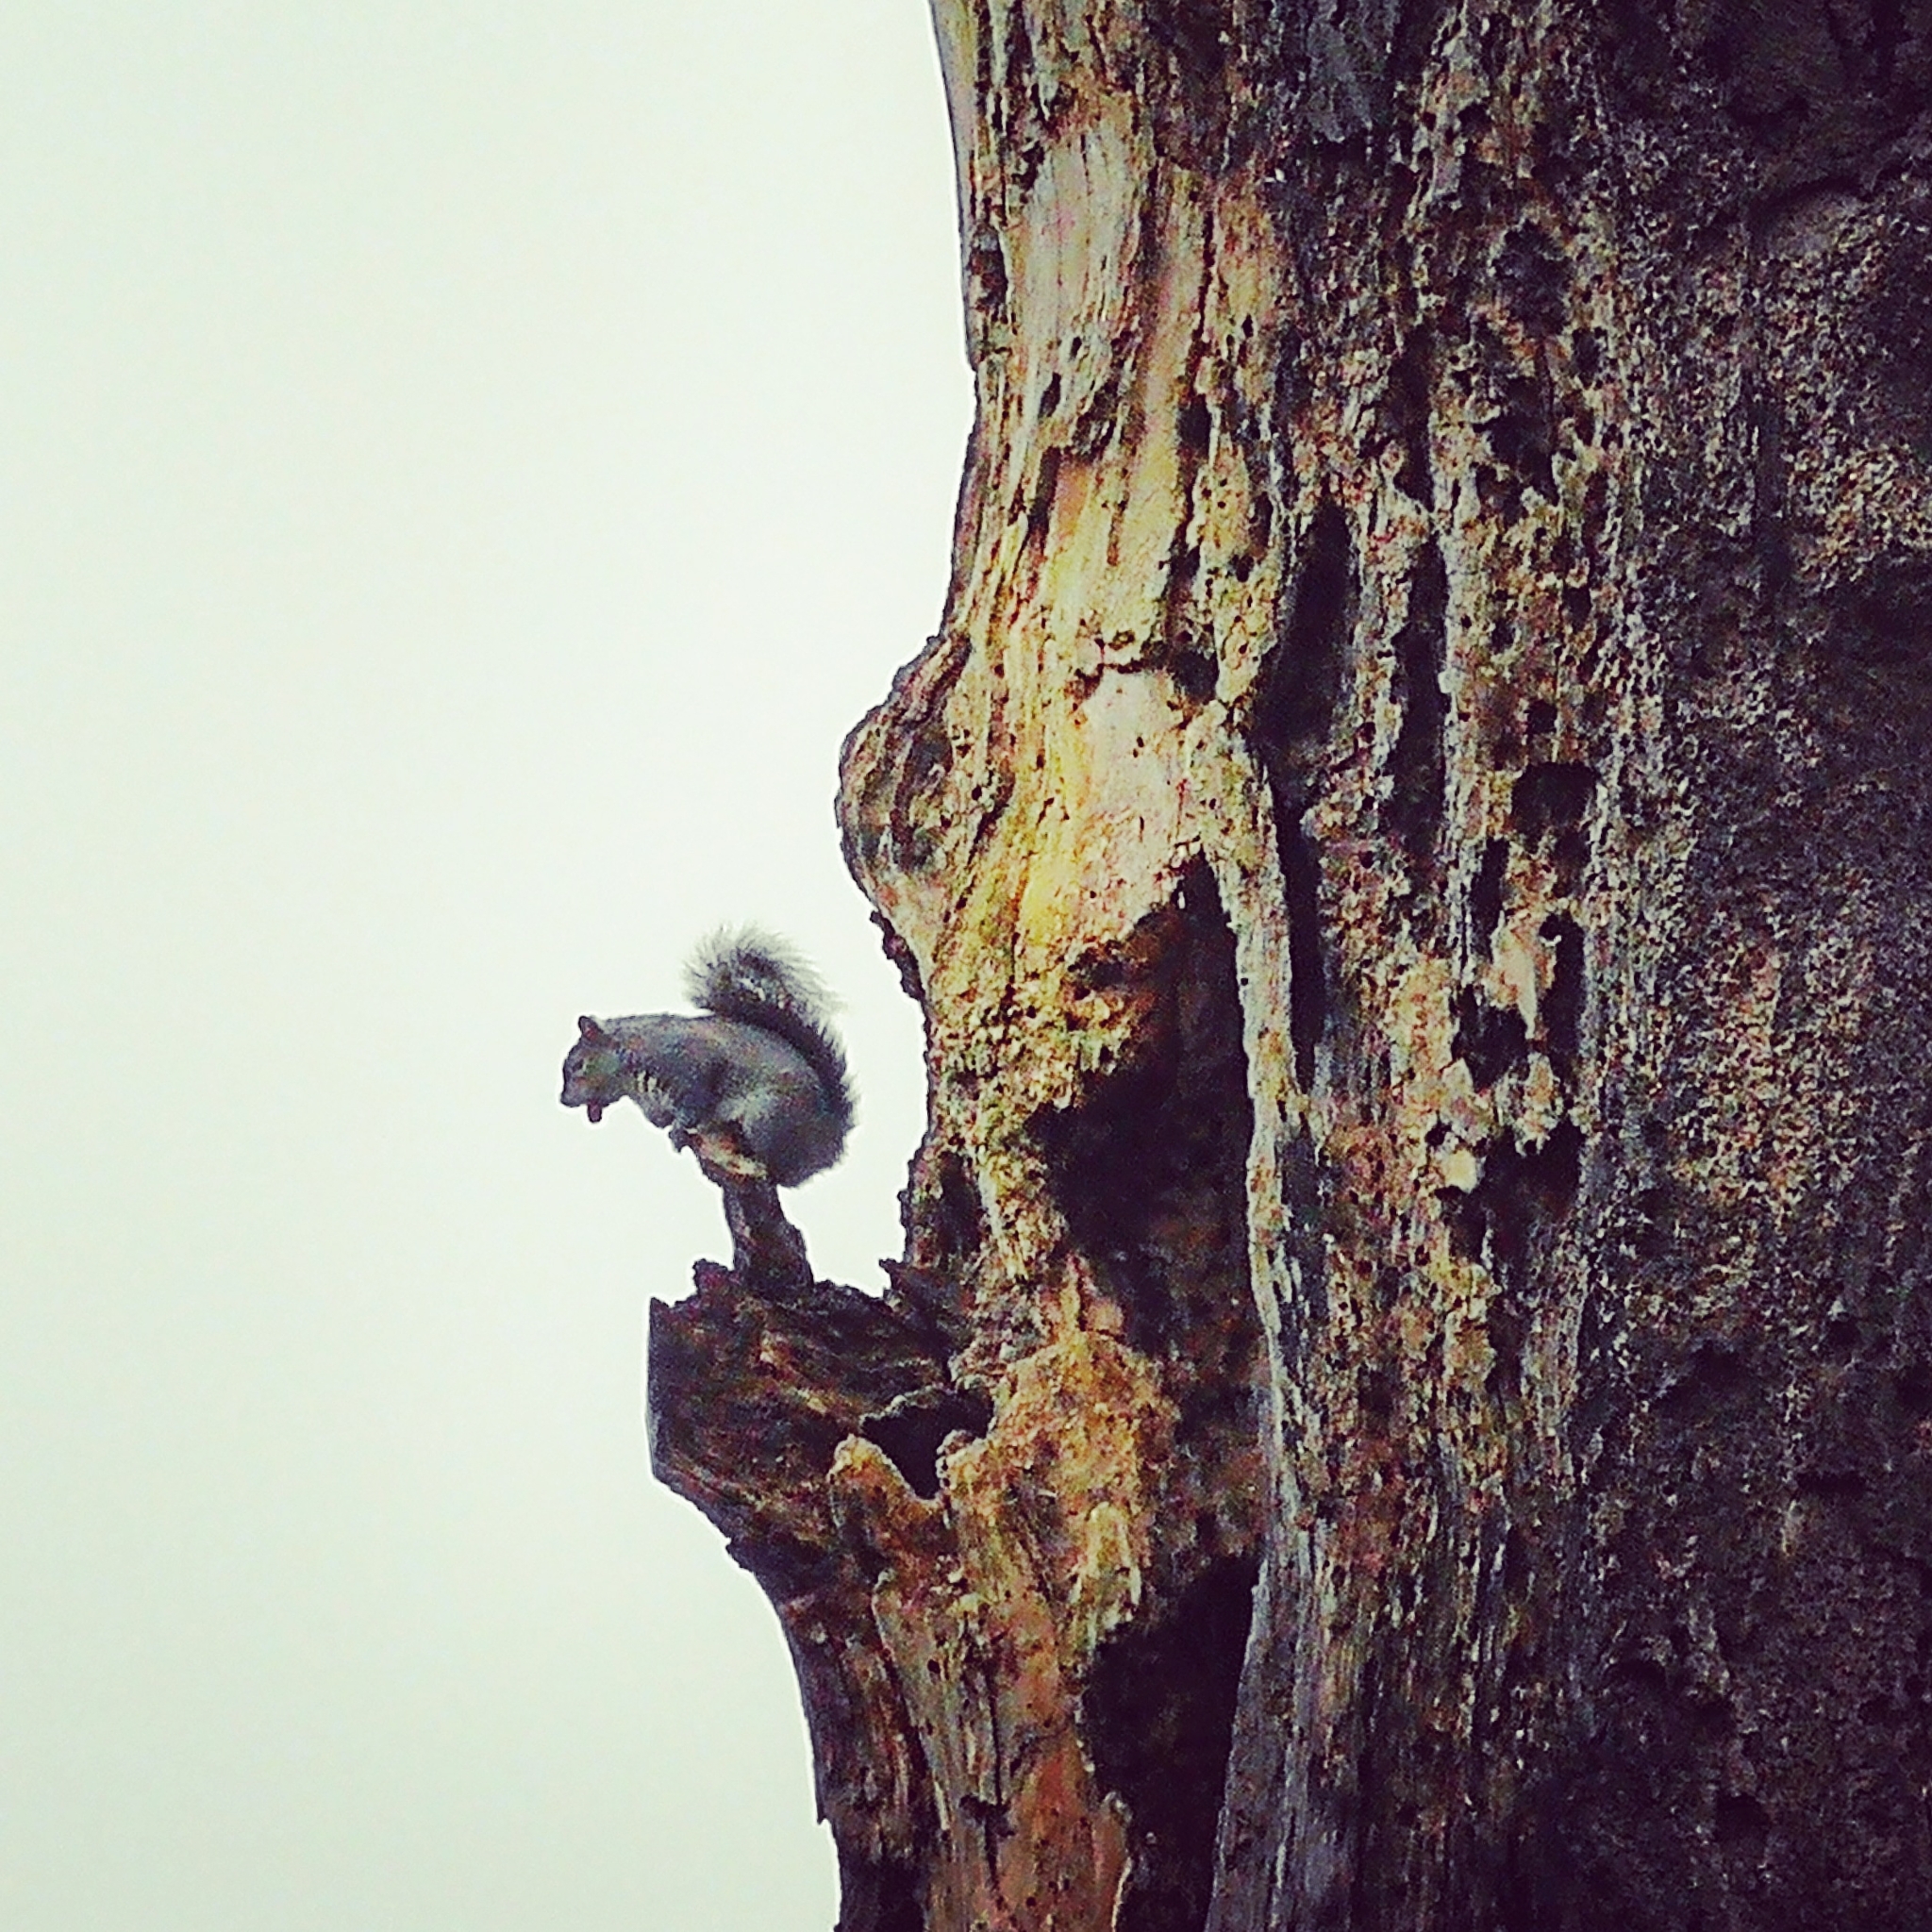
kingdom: Animalia
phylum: Chordata
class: Mammalia
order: Rodentia
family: Sciuridae
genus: Sciurus
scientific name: Sciurus carolinensis
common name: Eastern gray squirrel
